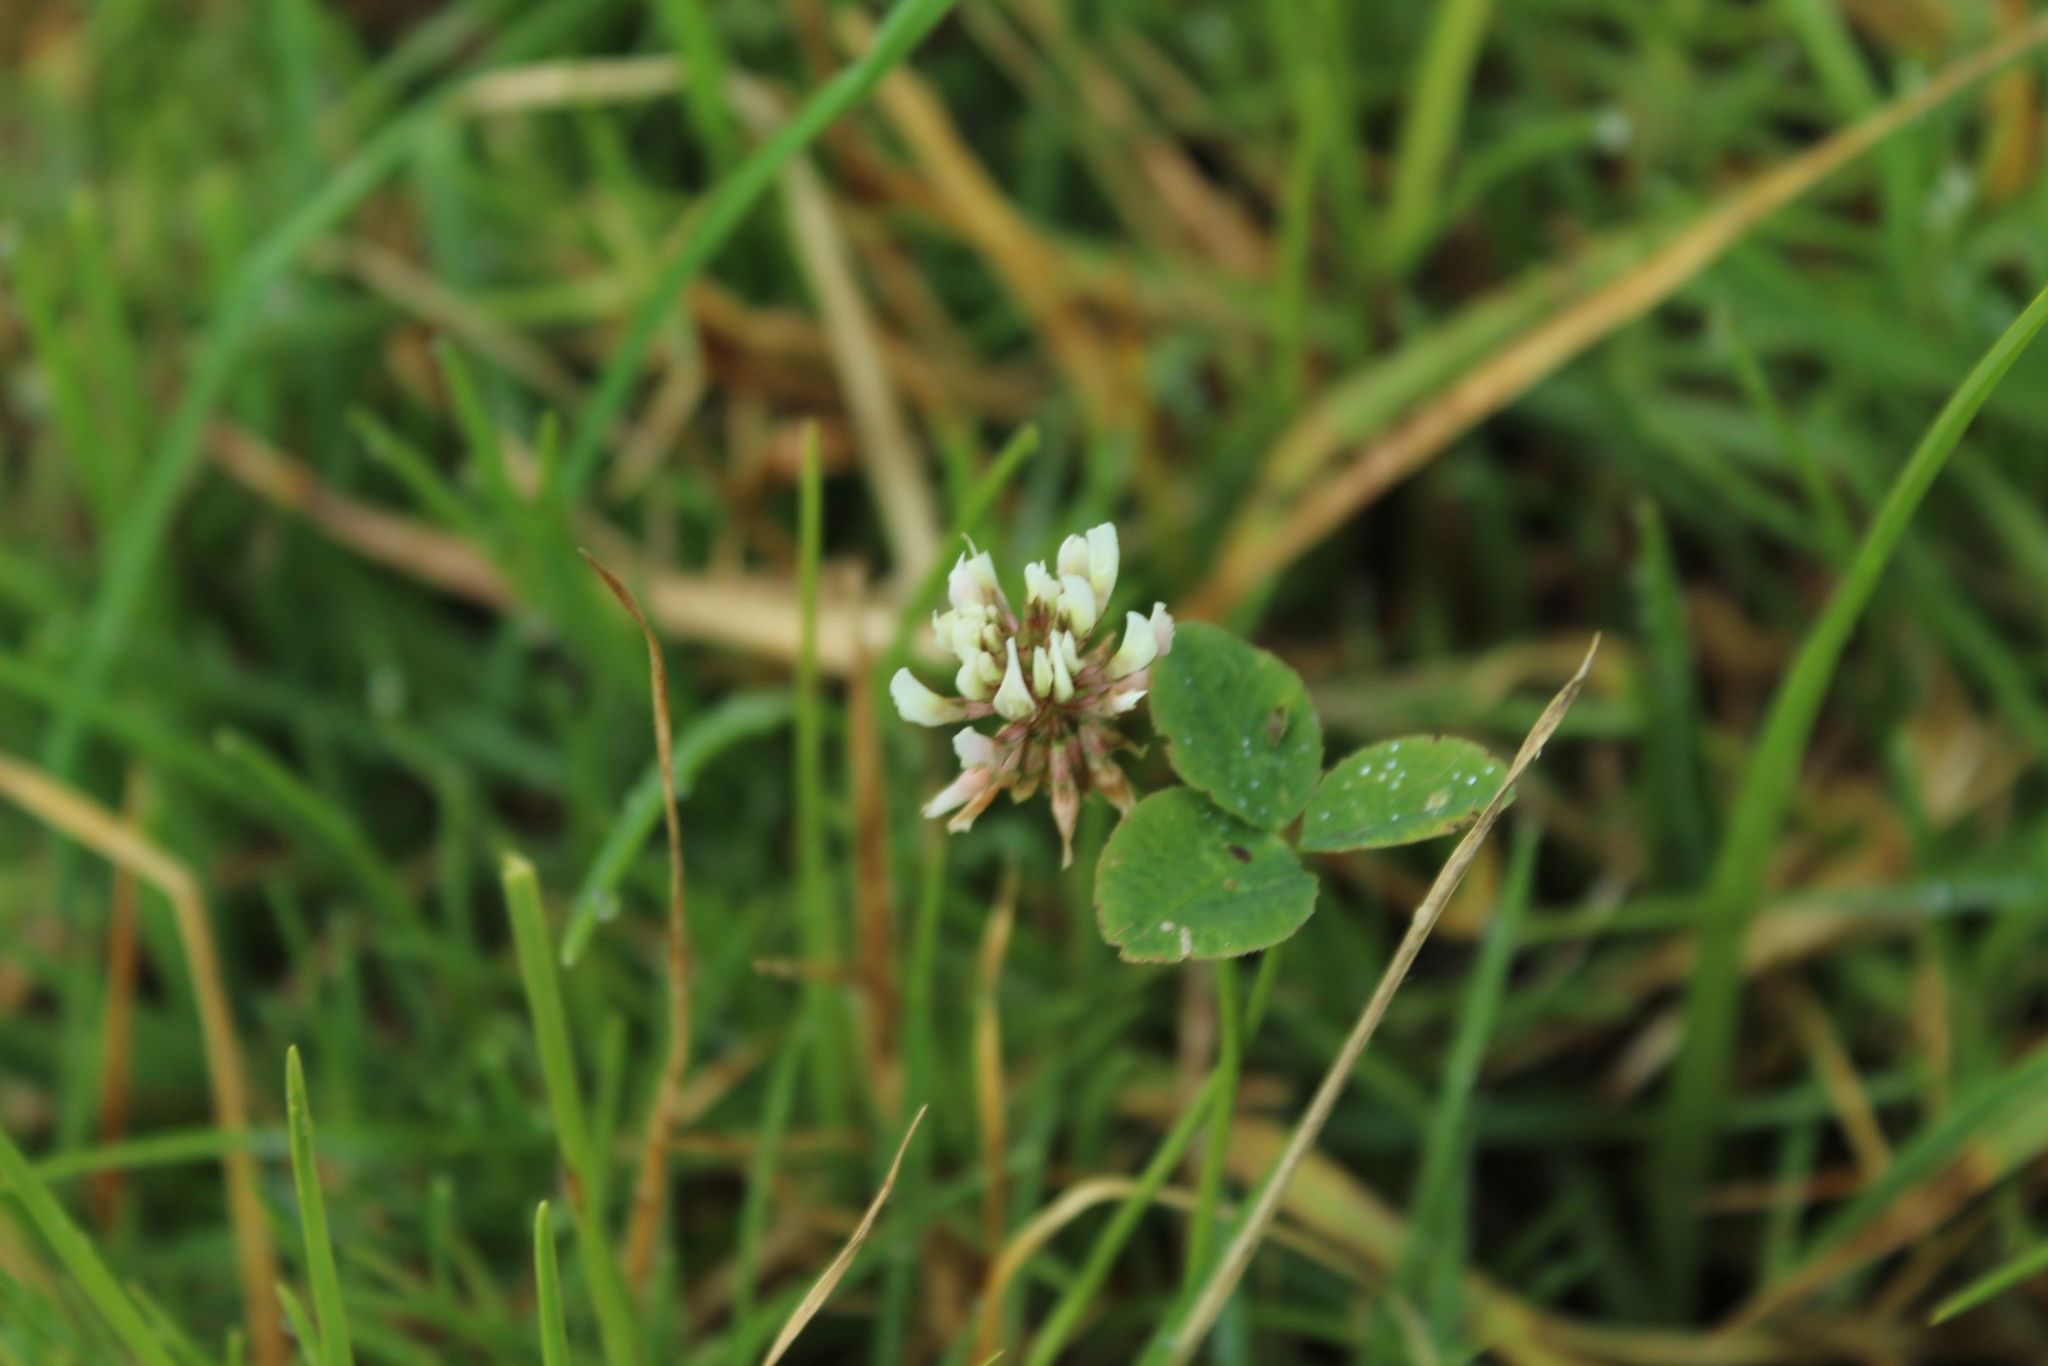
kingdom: Plantae
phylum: Tracheophyta
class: Magnoliopsida
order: Fabales
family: Fabaceae
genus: Trifolium
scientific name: Trifolium repens
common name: White clover
